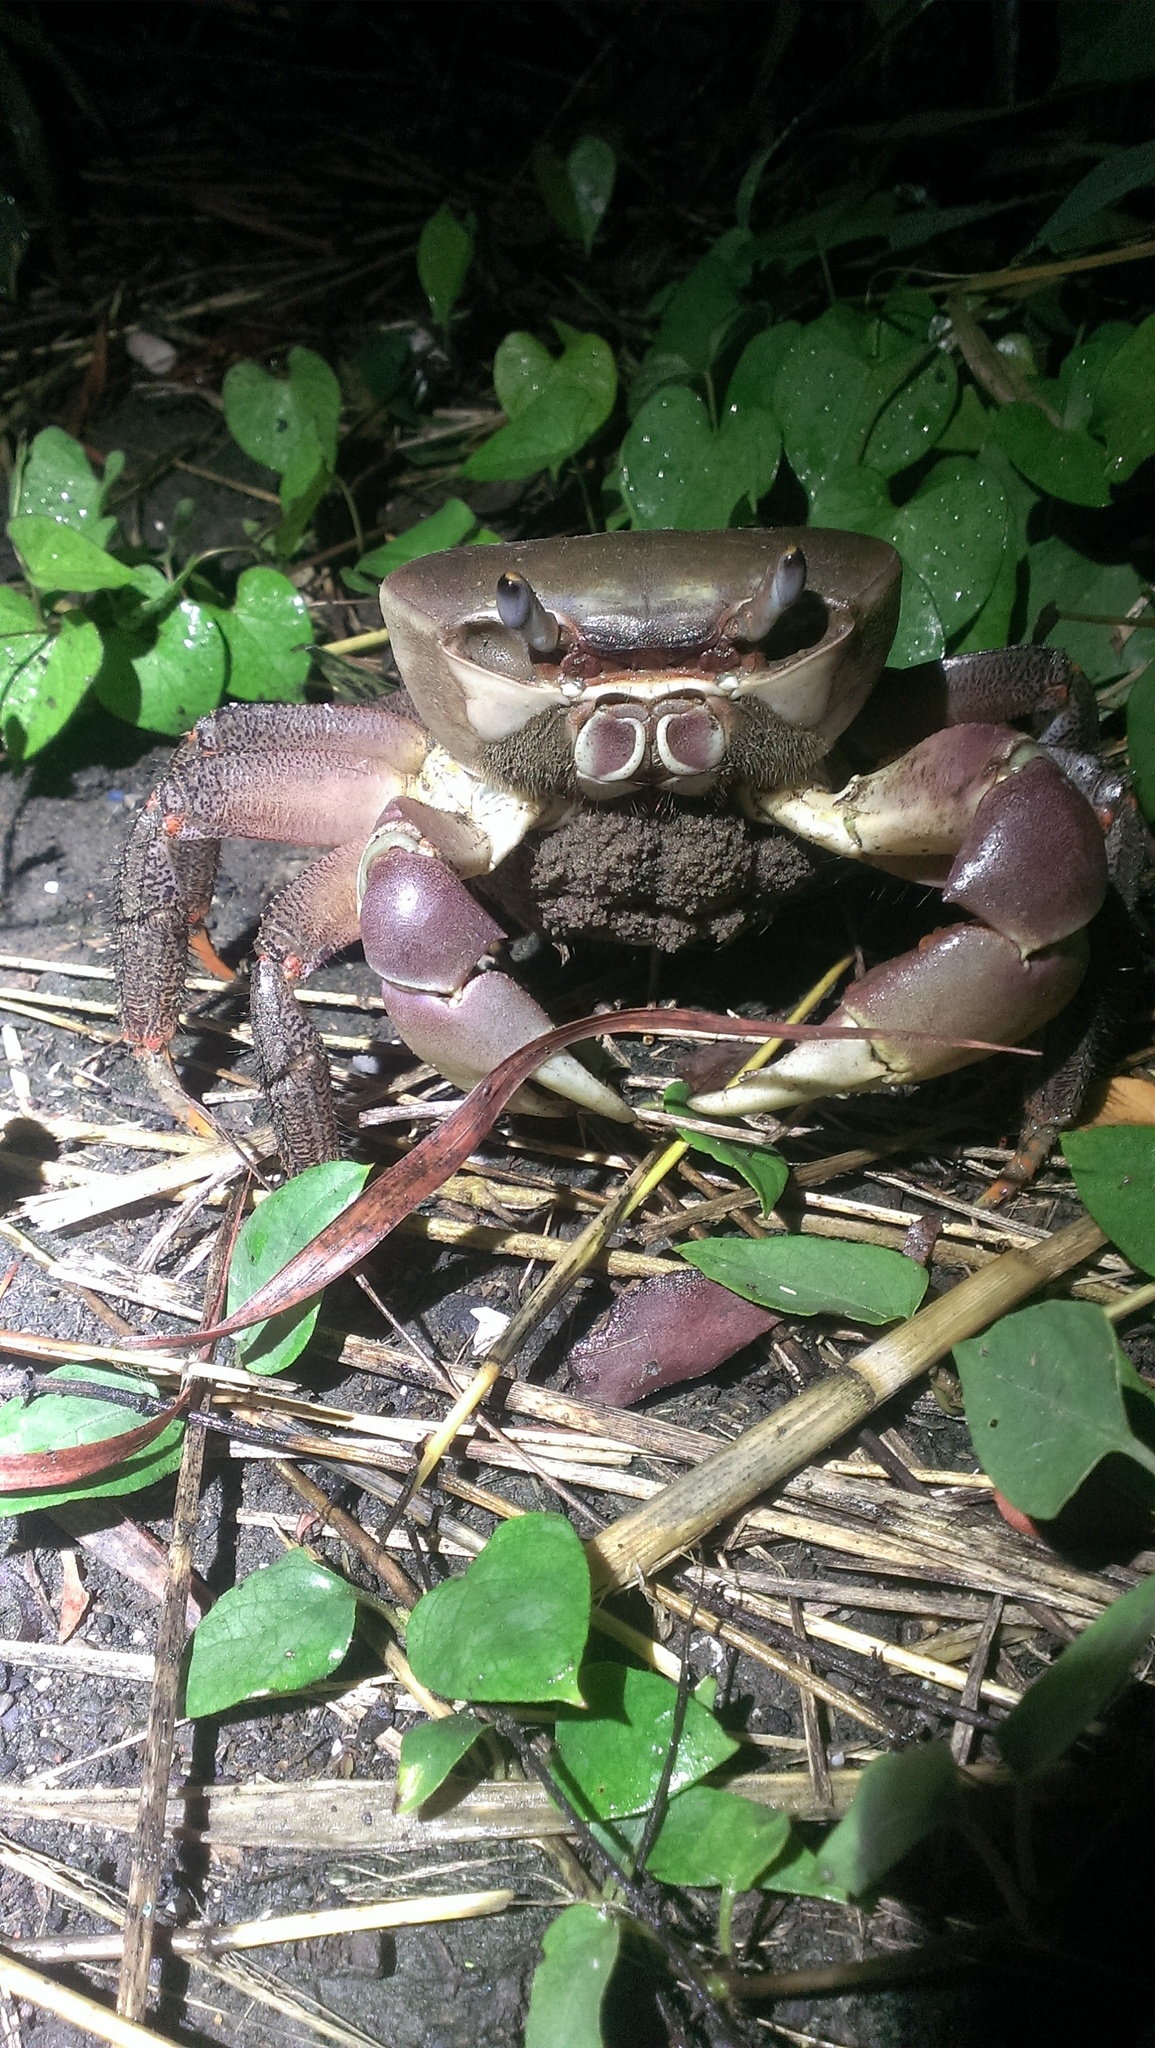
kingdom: Animalia
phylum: Arthropoda
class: Malacostraca
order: Decapoda
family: Gecarcinidae
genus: Cardisoma
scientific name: Cardisoma carnifex
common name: Brown land crab
